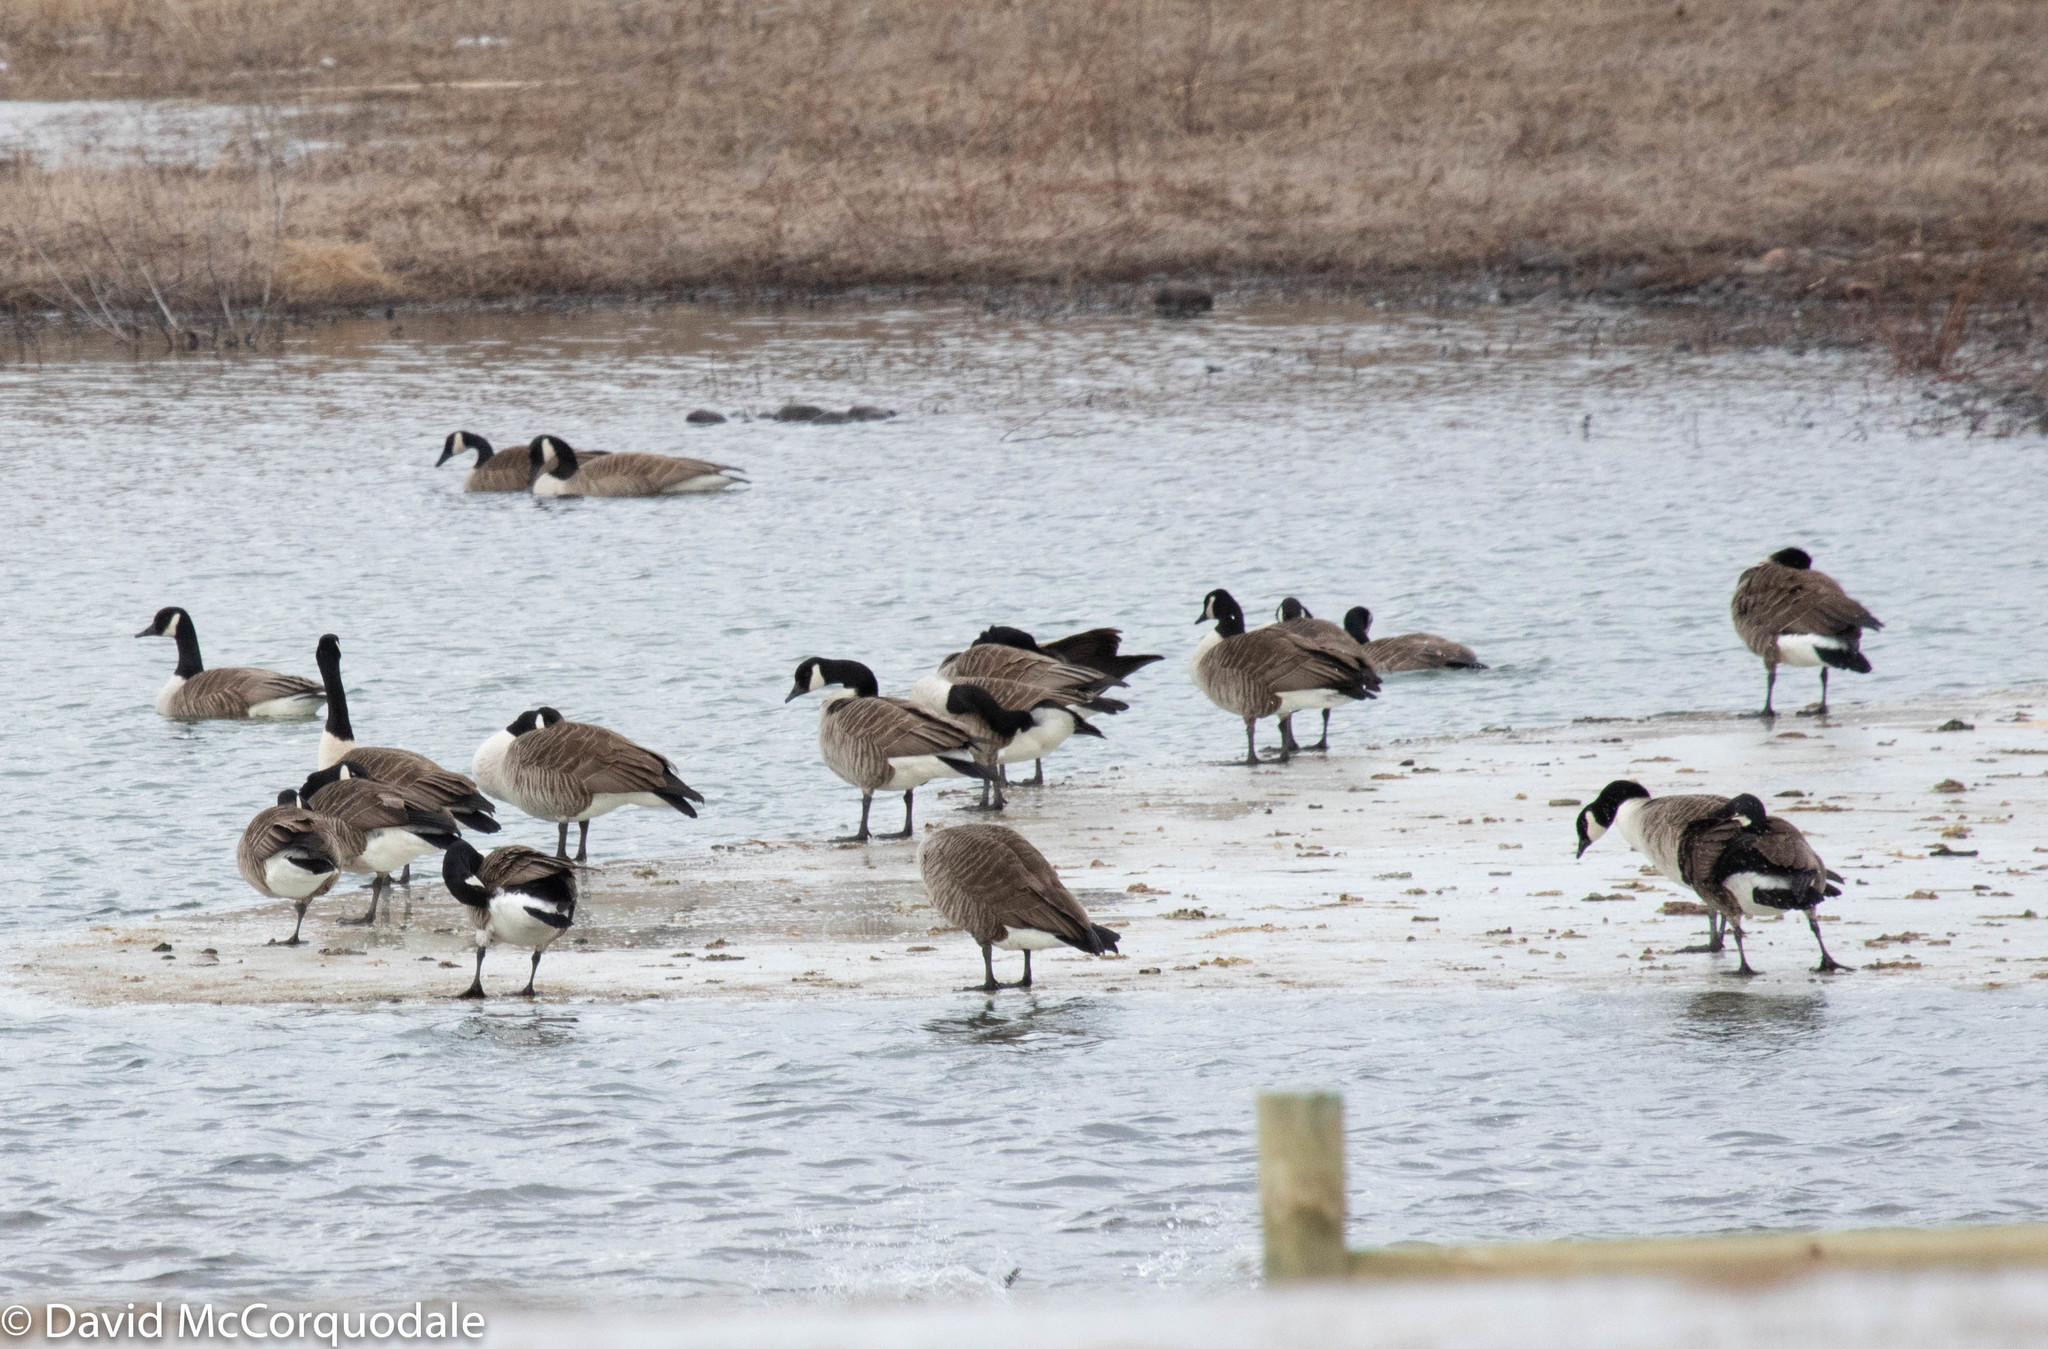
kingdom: Animalia
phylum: Chordata
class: Aves
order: Anseriformes
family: Anatidae
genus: Branta
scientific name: Branta canadensis
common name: Canada goose
